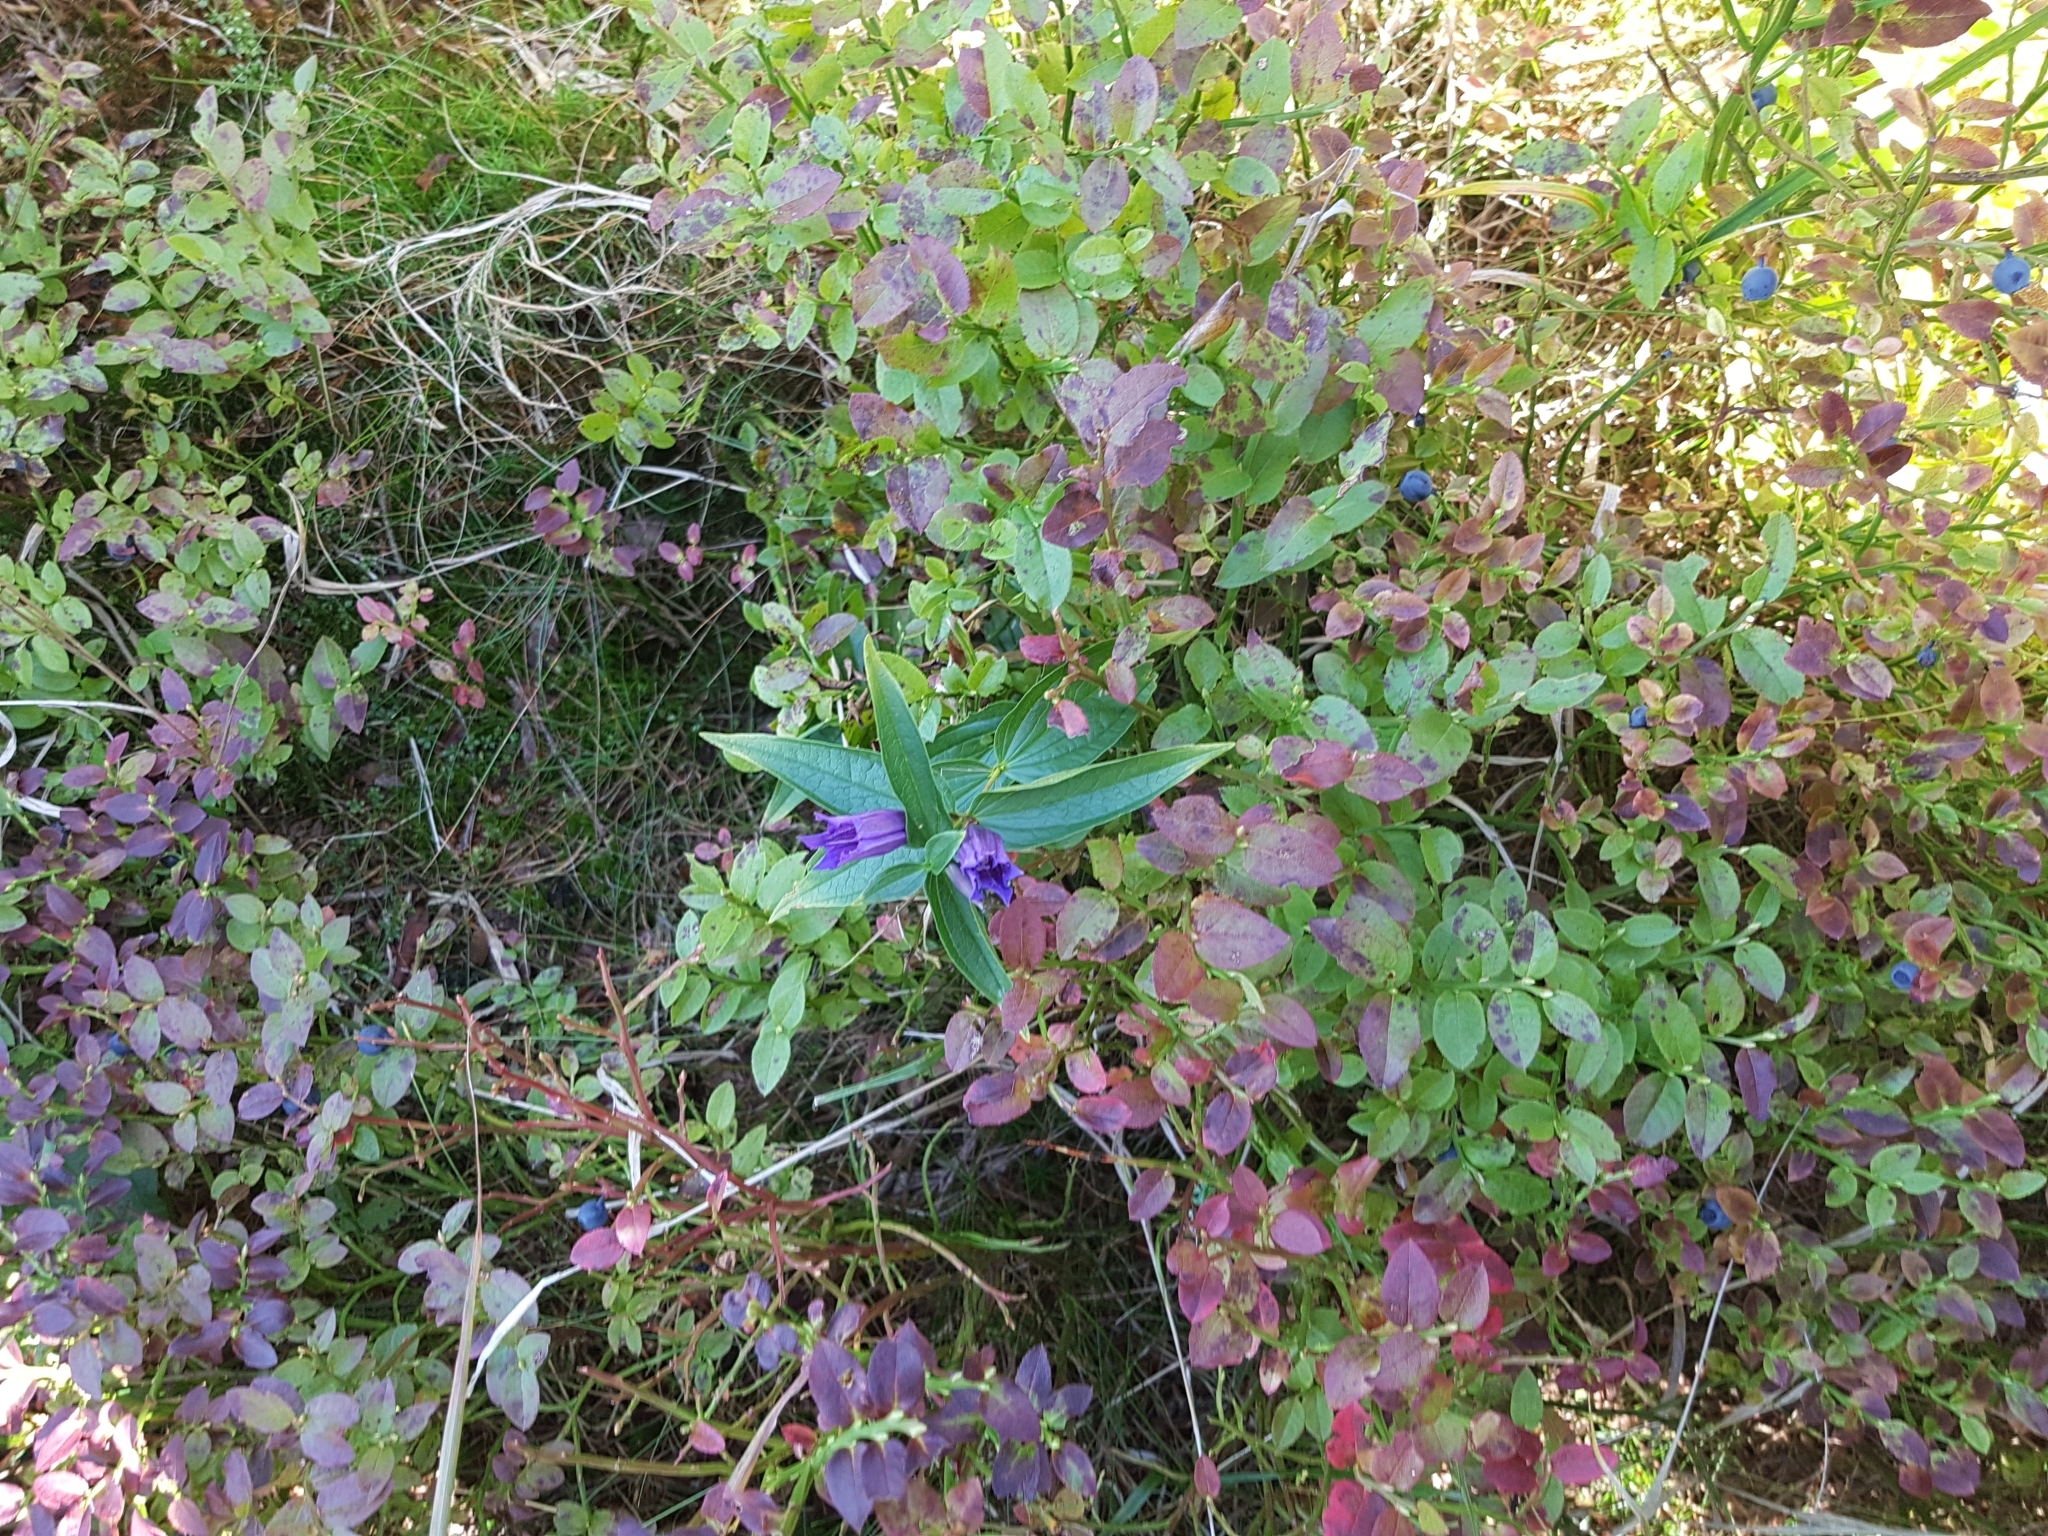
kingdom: Plantae
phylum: Tracheophyta
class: Magnoliopsida
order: Gentianales
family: Gentianaceae
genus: Gentiana
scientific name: Gentiana asclepiadea
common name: Willow gentian
